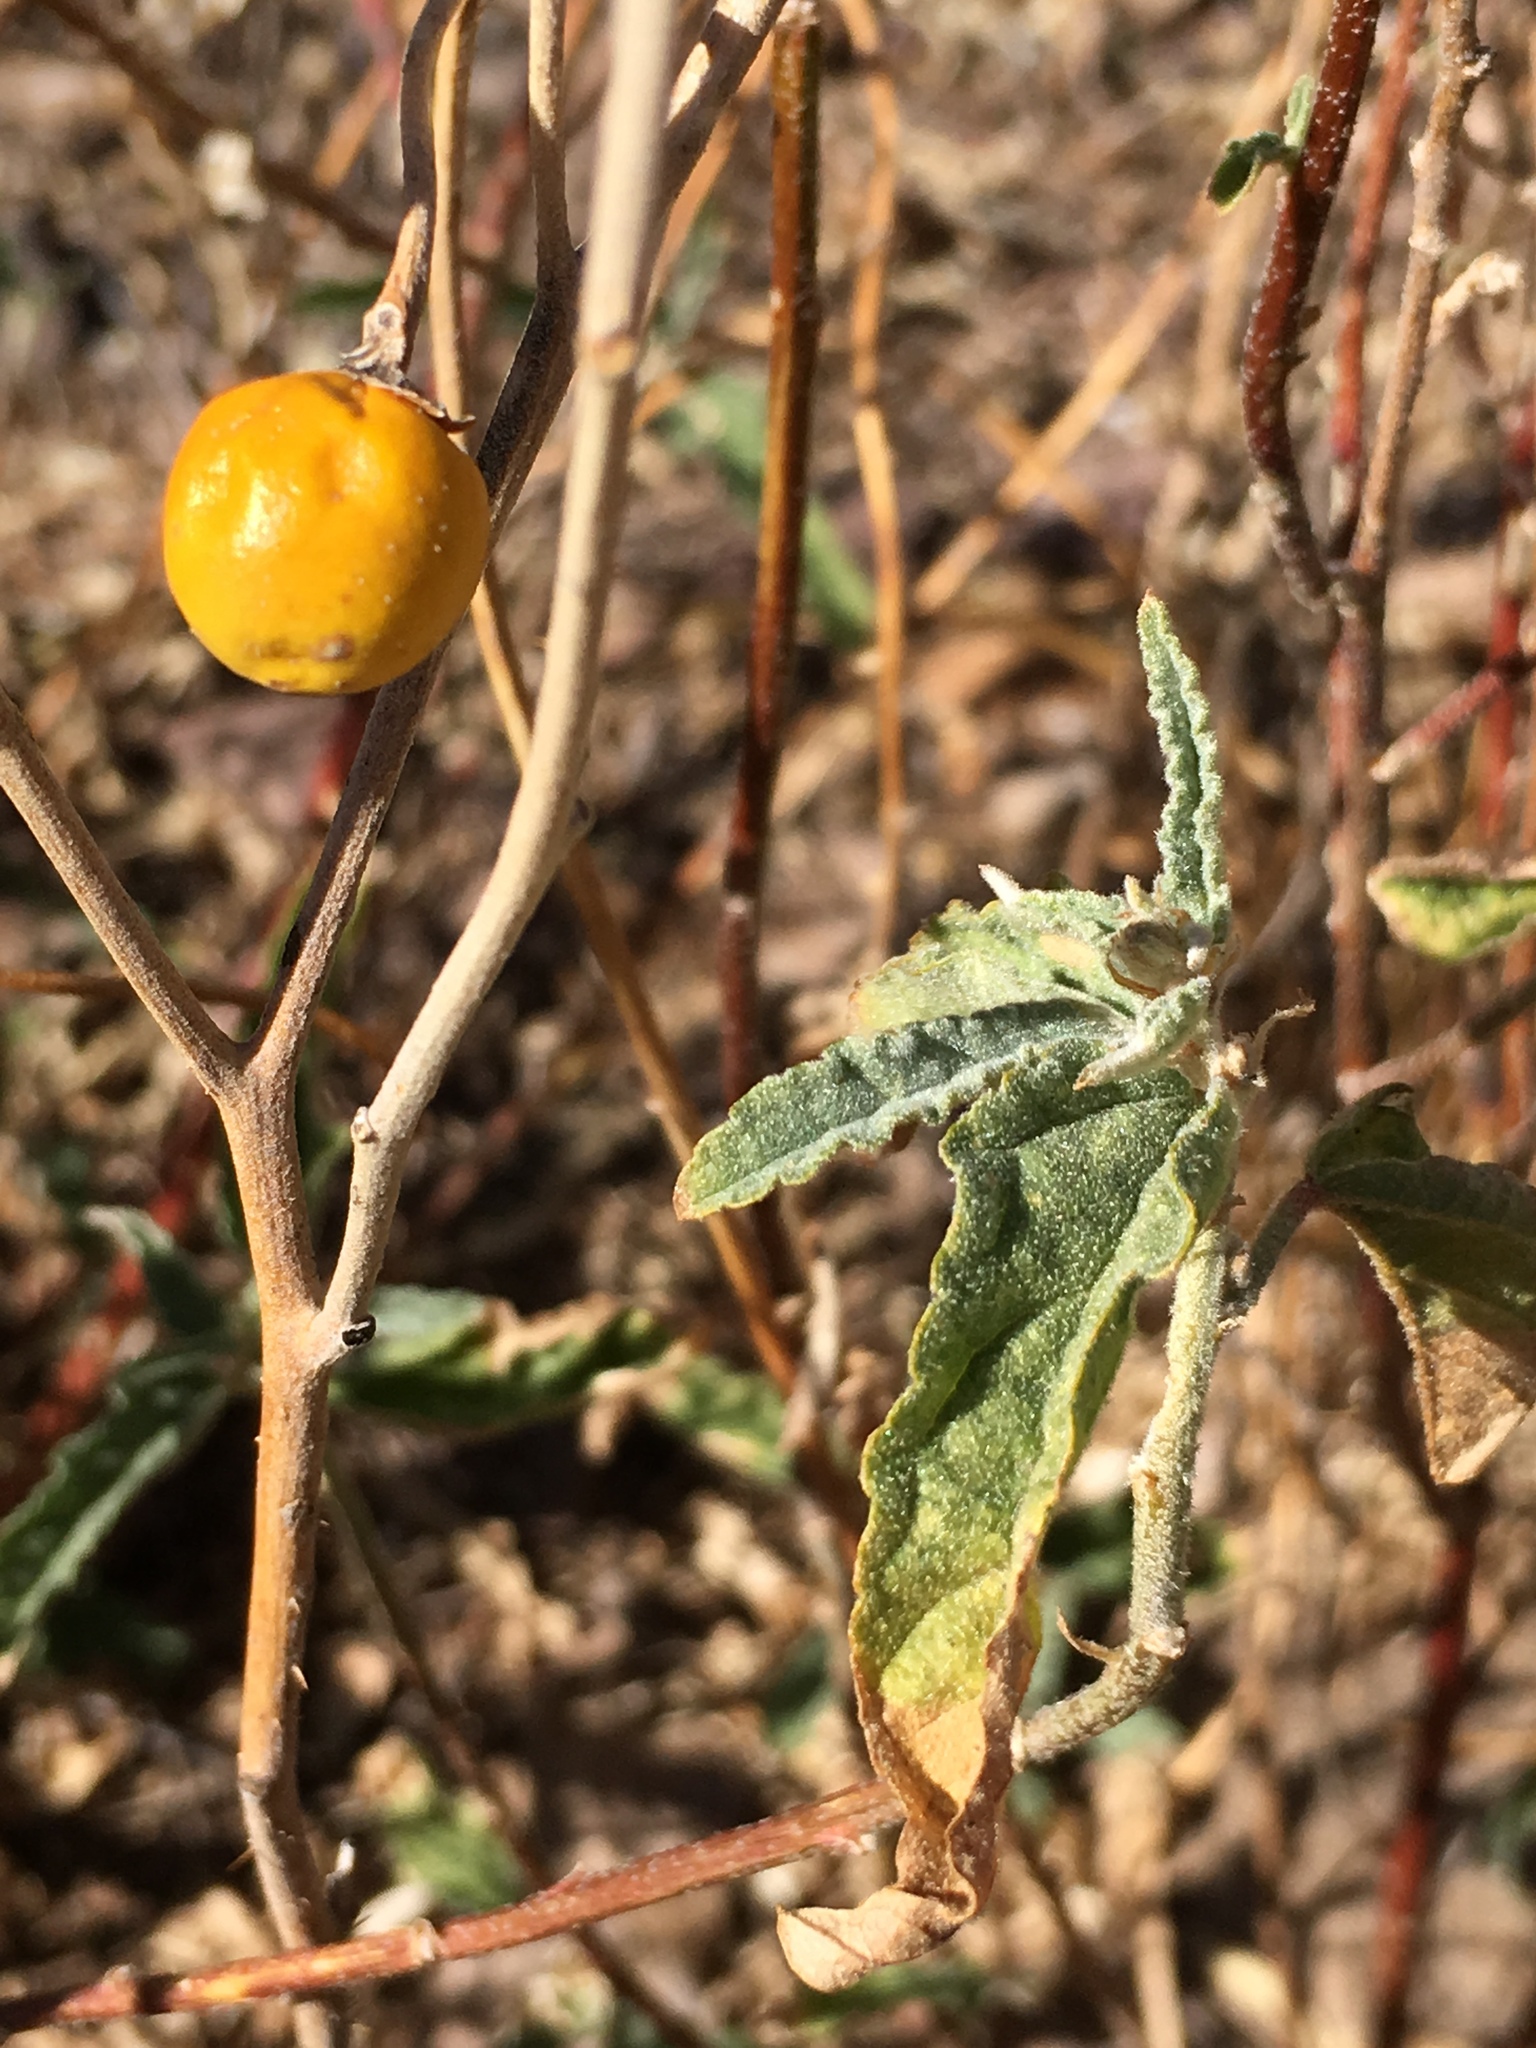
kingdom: Plantae
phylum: Tracheophyta
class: Magnoliopsida
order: Solanales
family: Solanaceae
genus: Solanum
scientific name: Solanum elaeagnifolium
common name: Silverleaf nightshade
